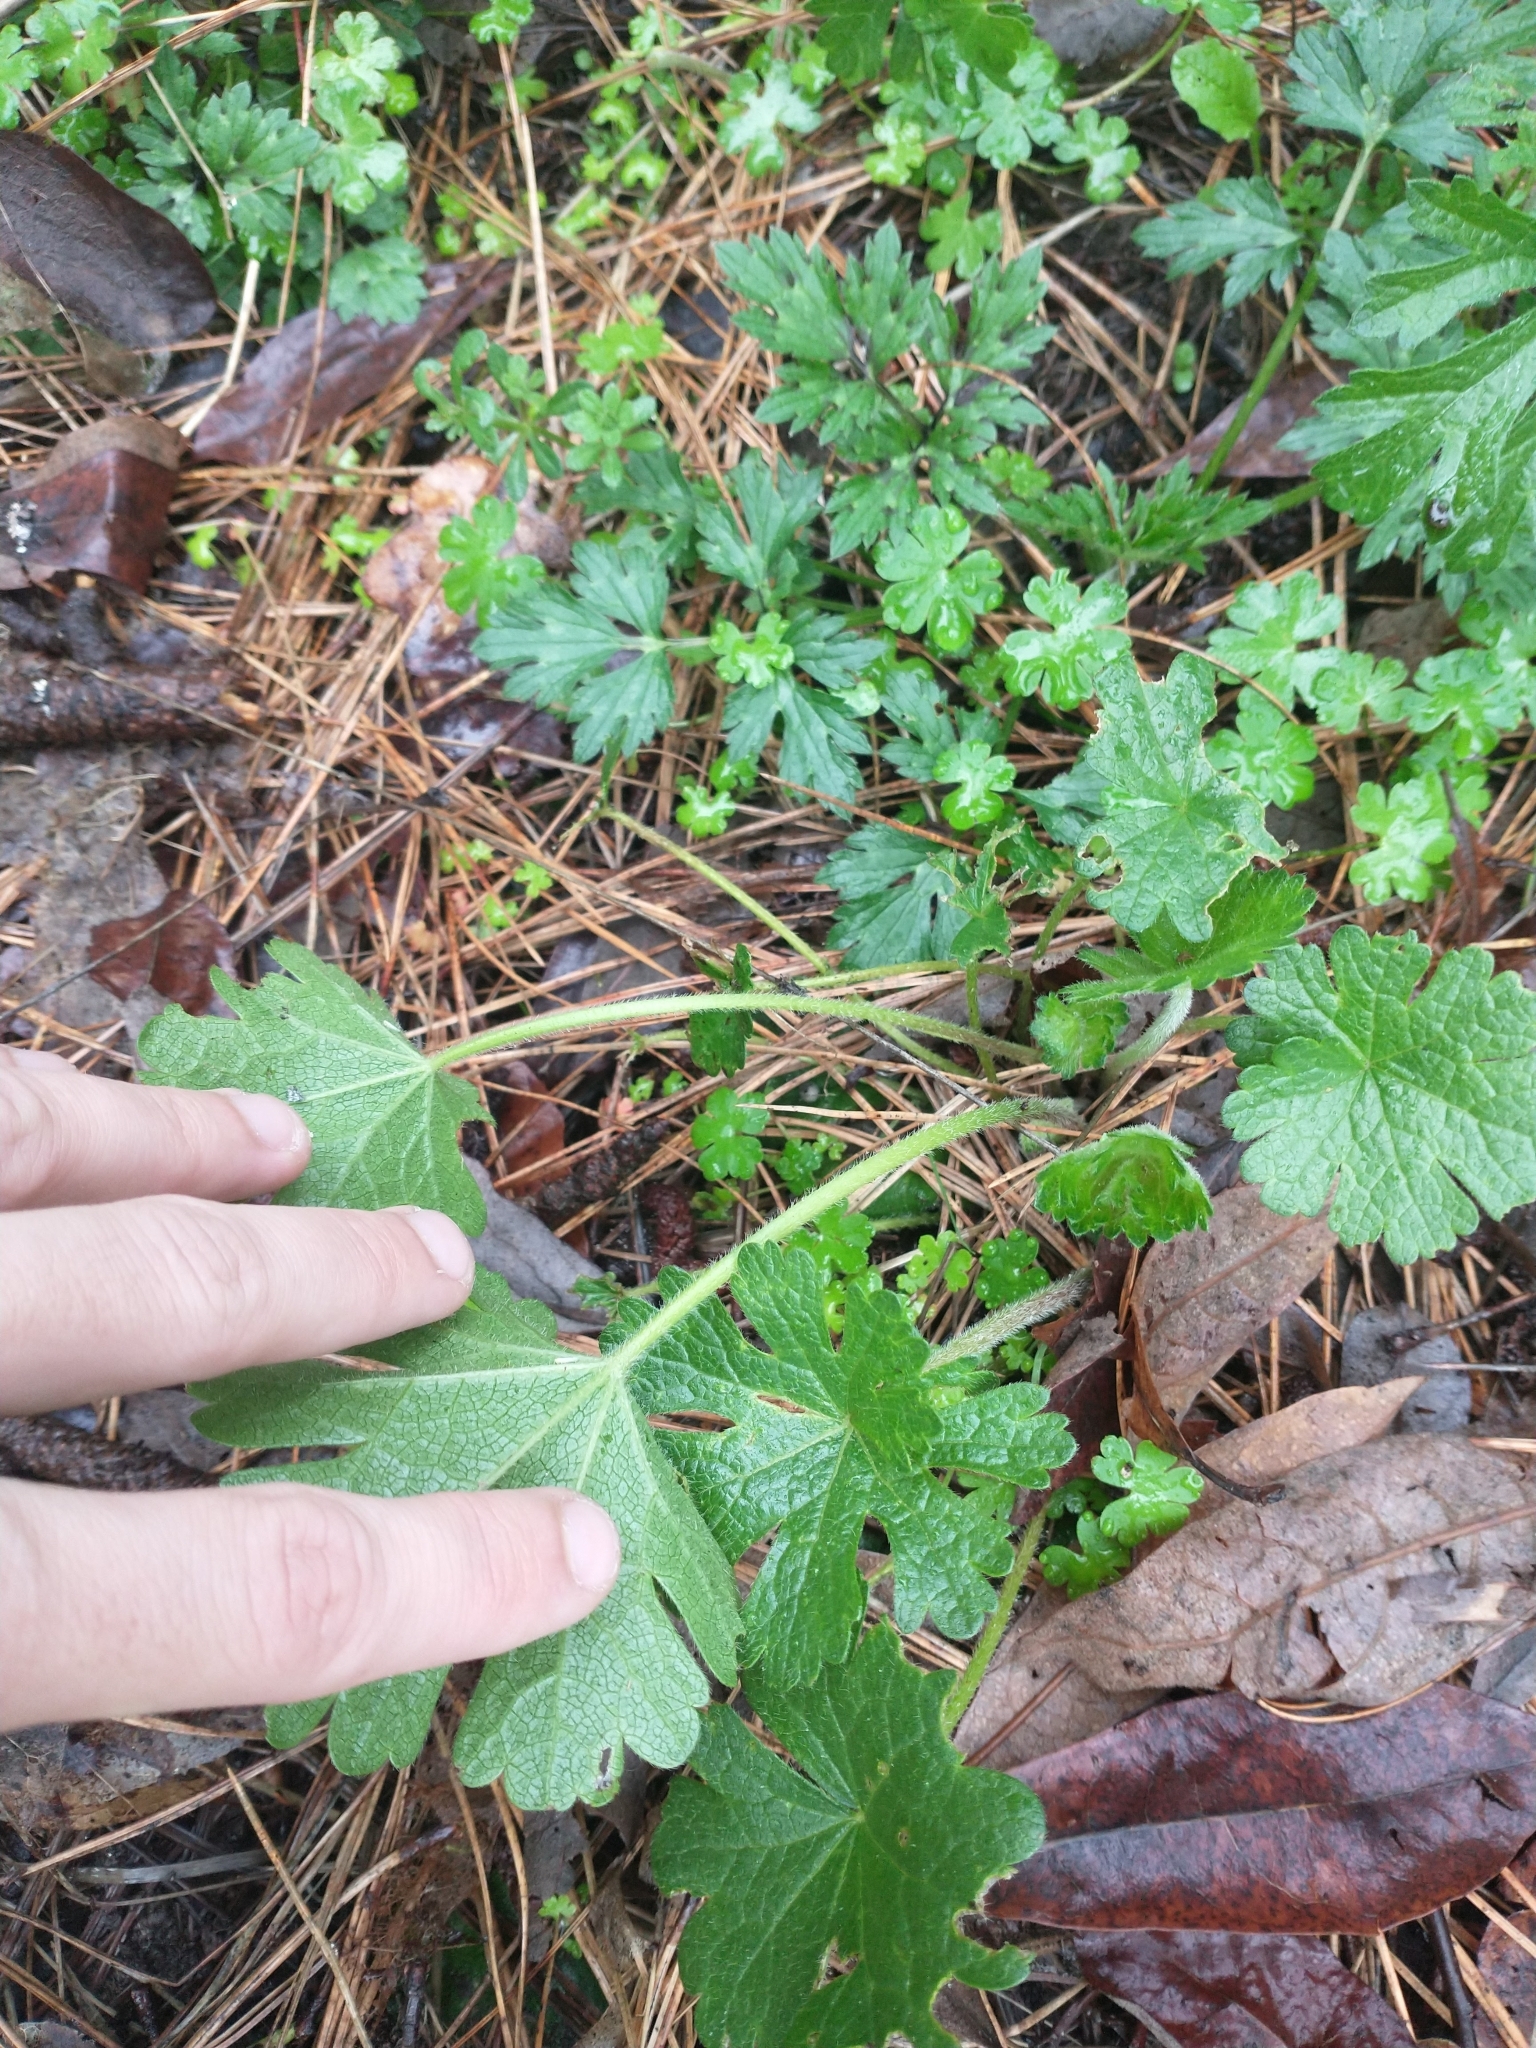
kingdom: Plantae
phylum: Tracheophyta
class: Magnoliopsida
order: Malvales
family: Malvaceae
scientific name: Malvaceae
